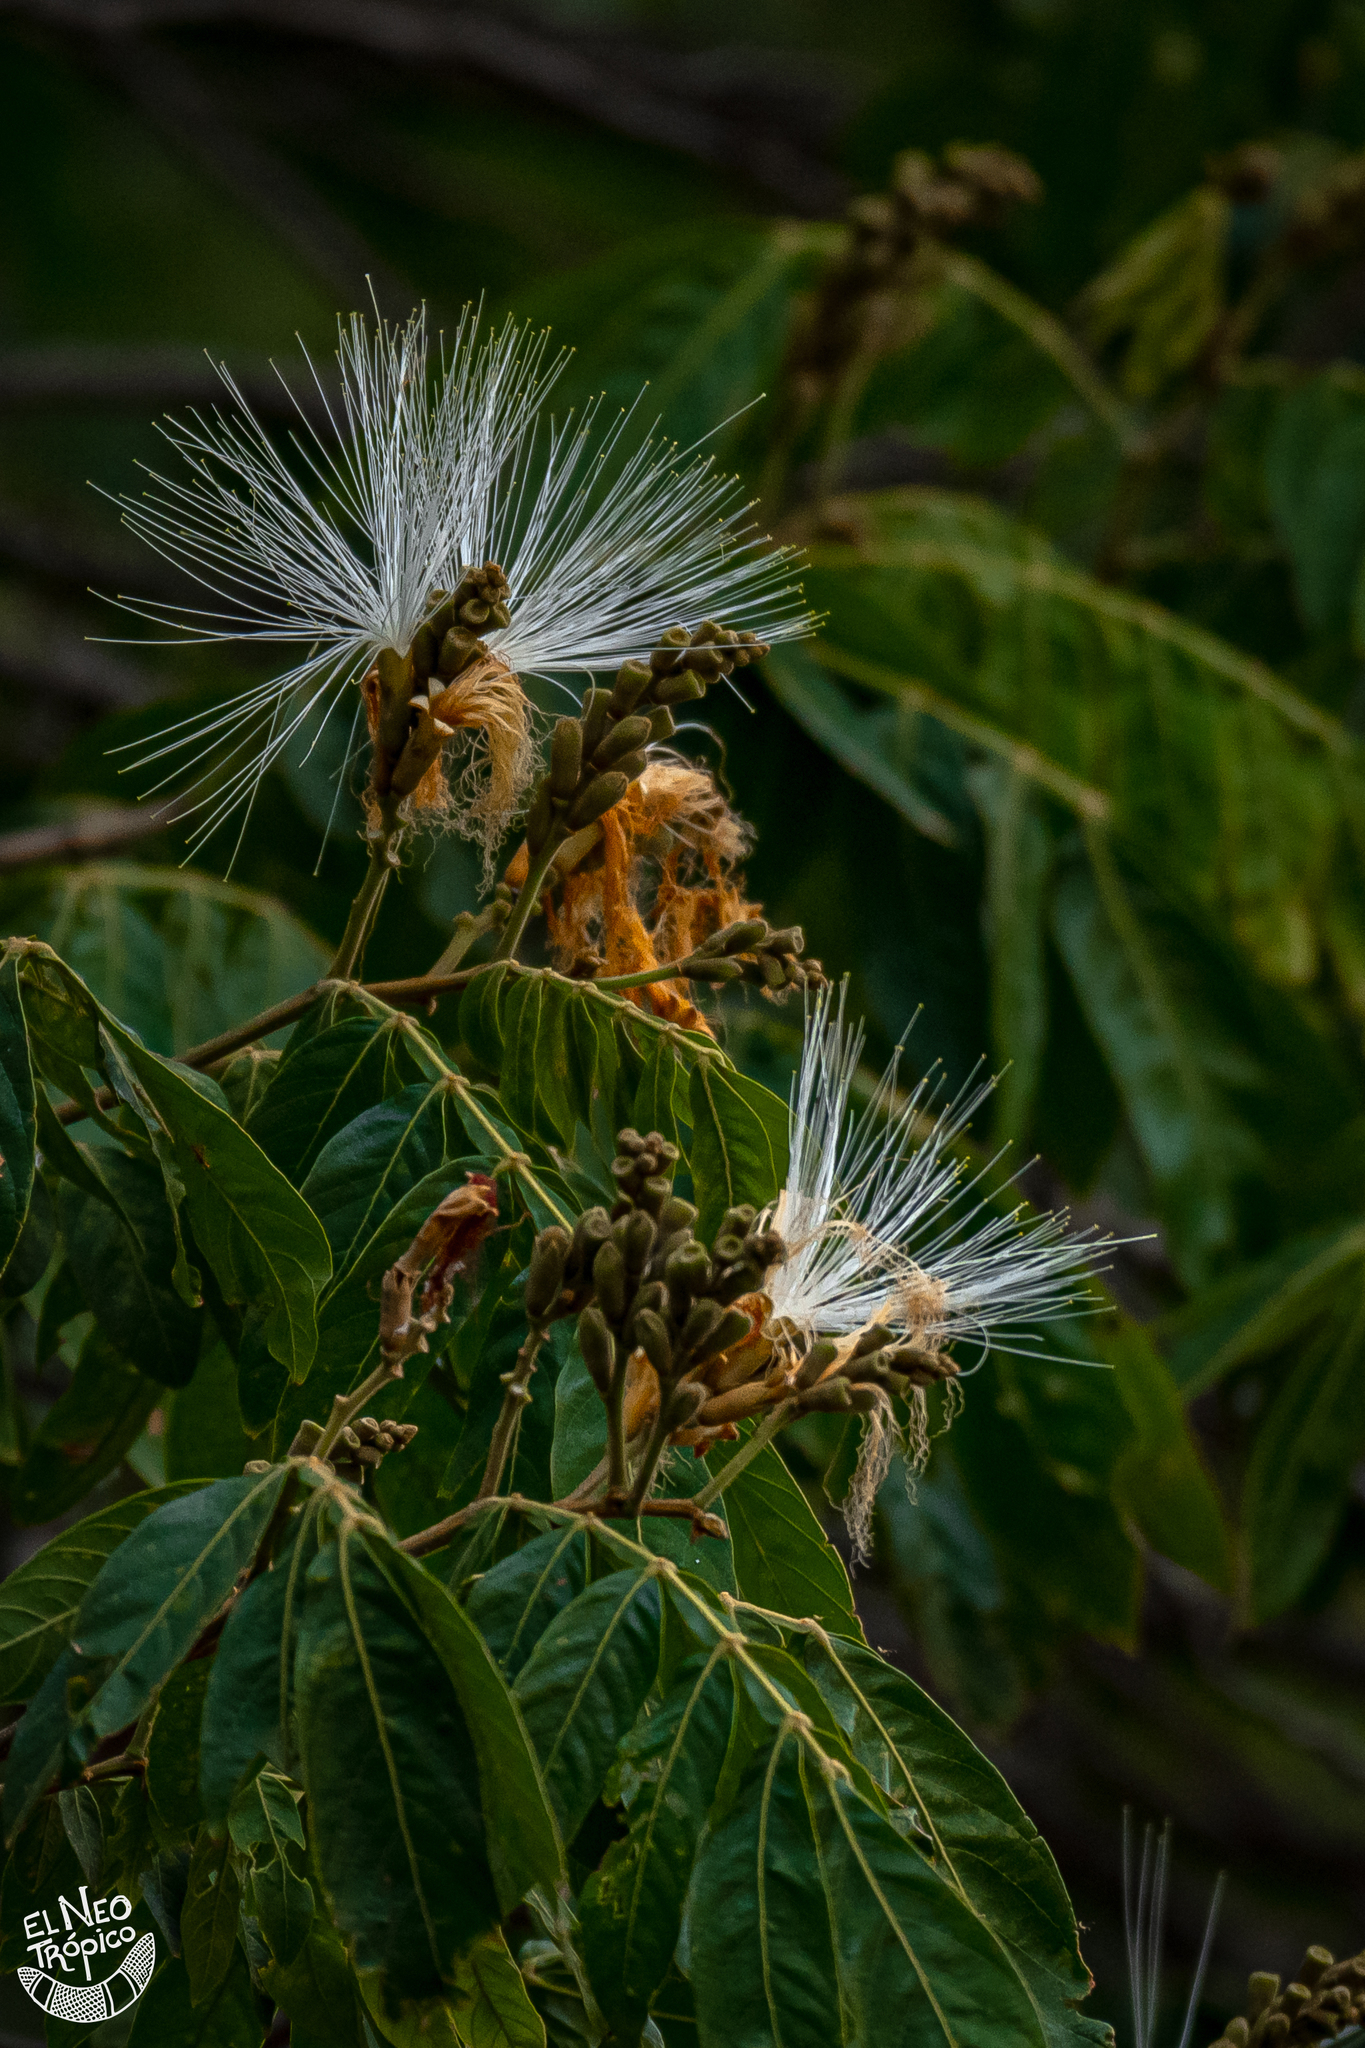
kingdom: Plantae
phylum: Tracheophyta
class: Magnoliopsida
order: Fabales
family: Fabaceae
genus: Inga
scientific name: Inga vera
